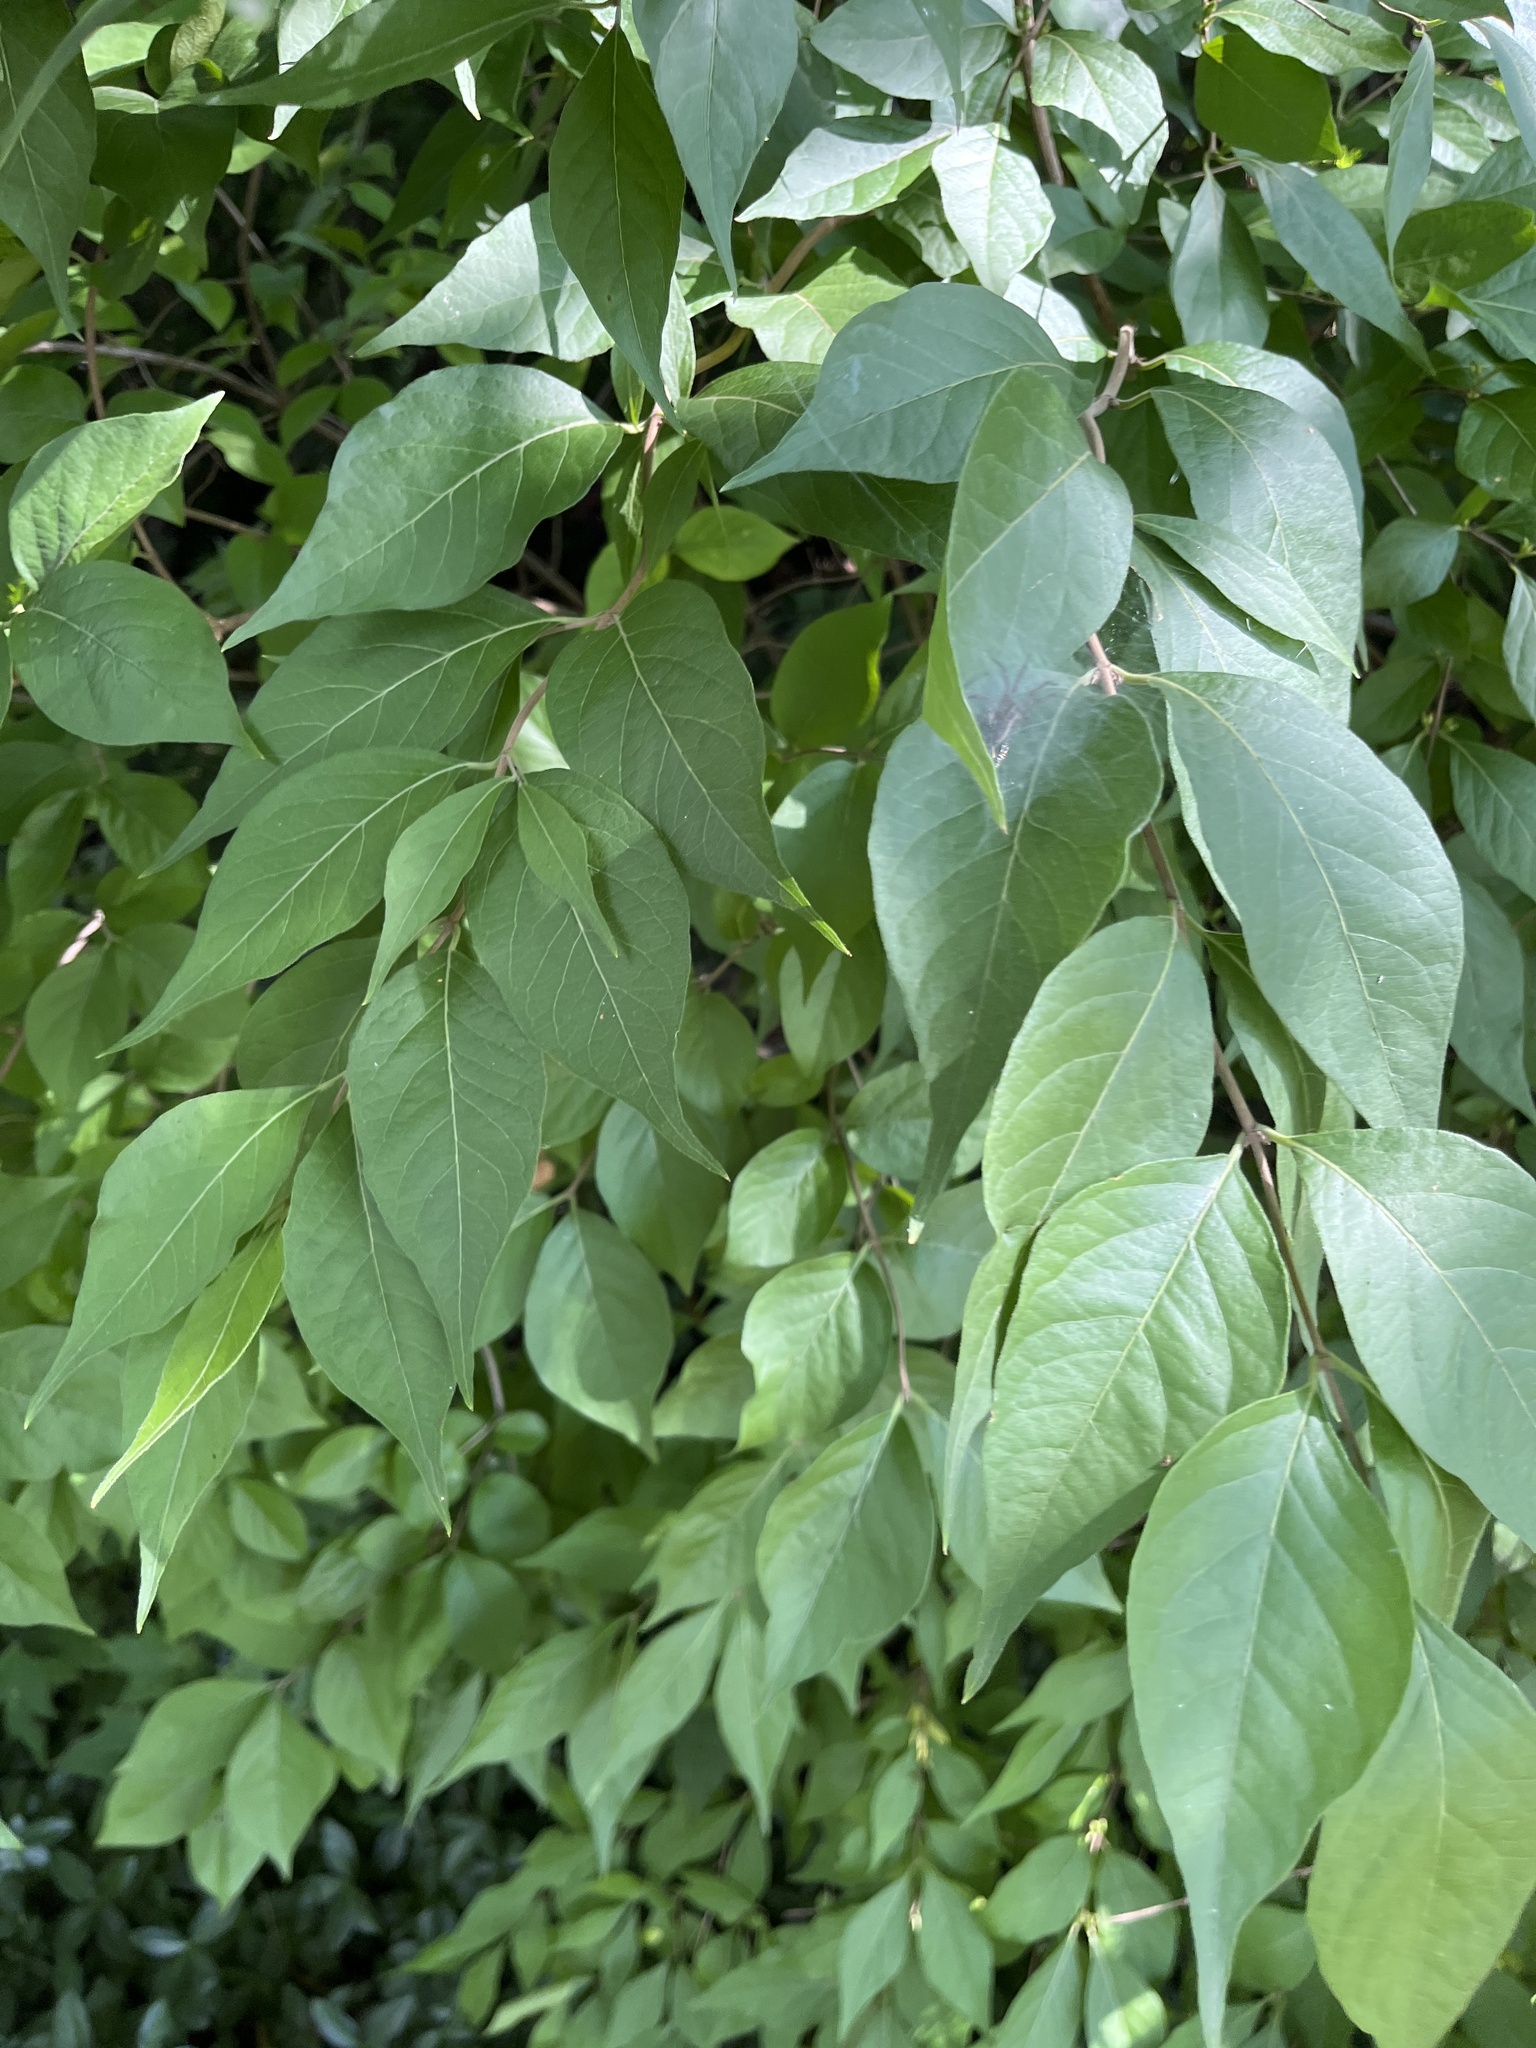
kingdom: Plantae
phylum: Tracheophyta
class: Magnoliopsida
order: Dipsacales
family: Caprifoliaceae
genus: Lonicera
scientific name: Lonicera maackii
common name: Amur honeysuckle
